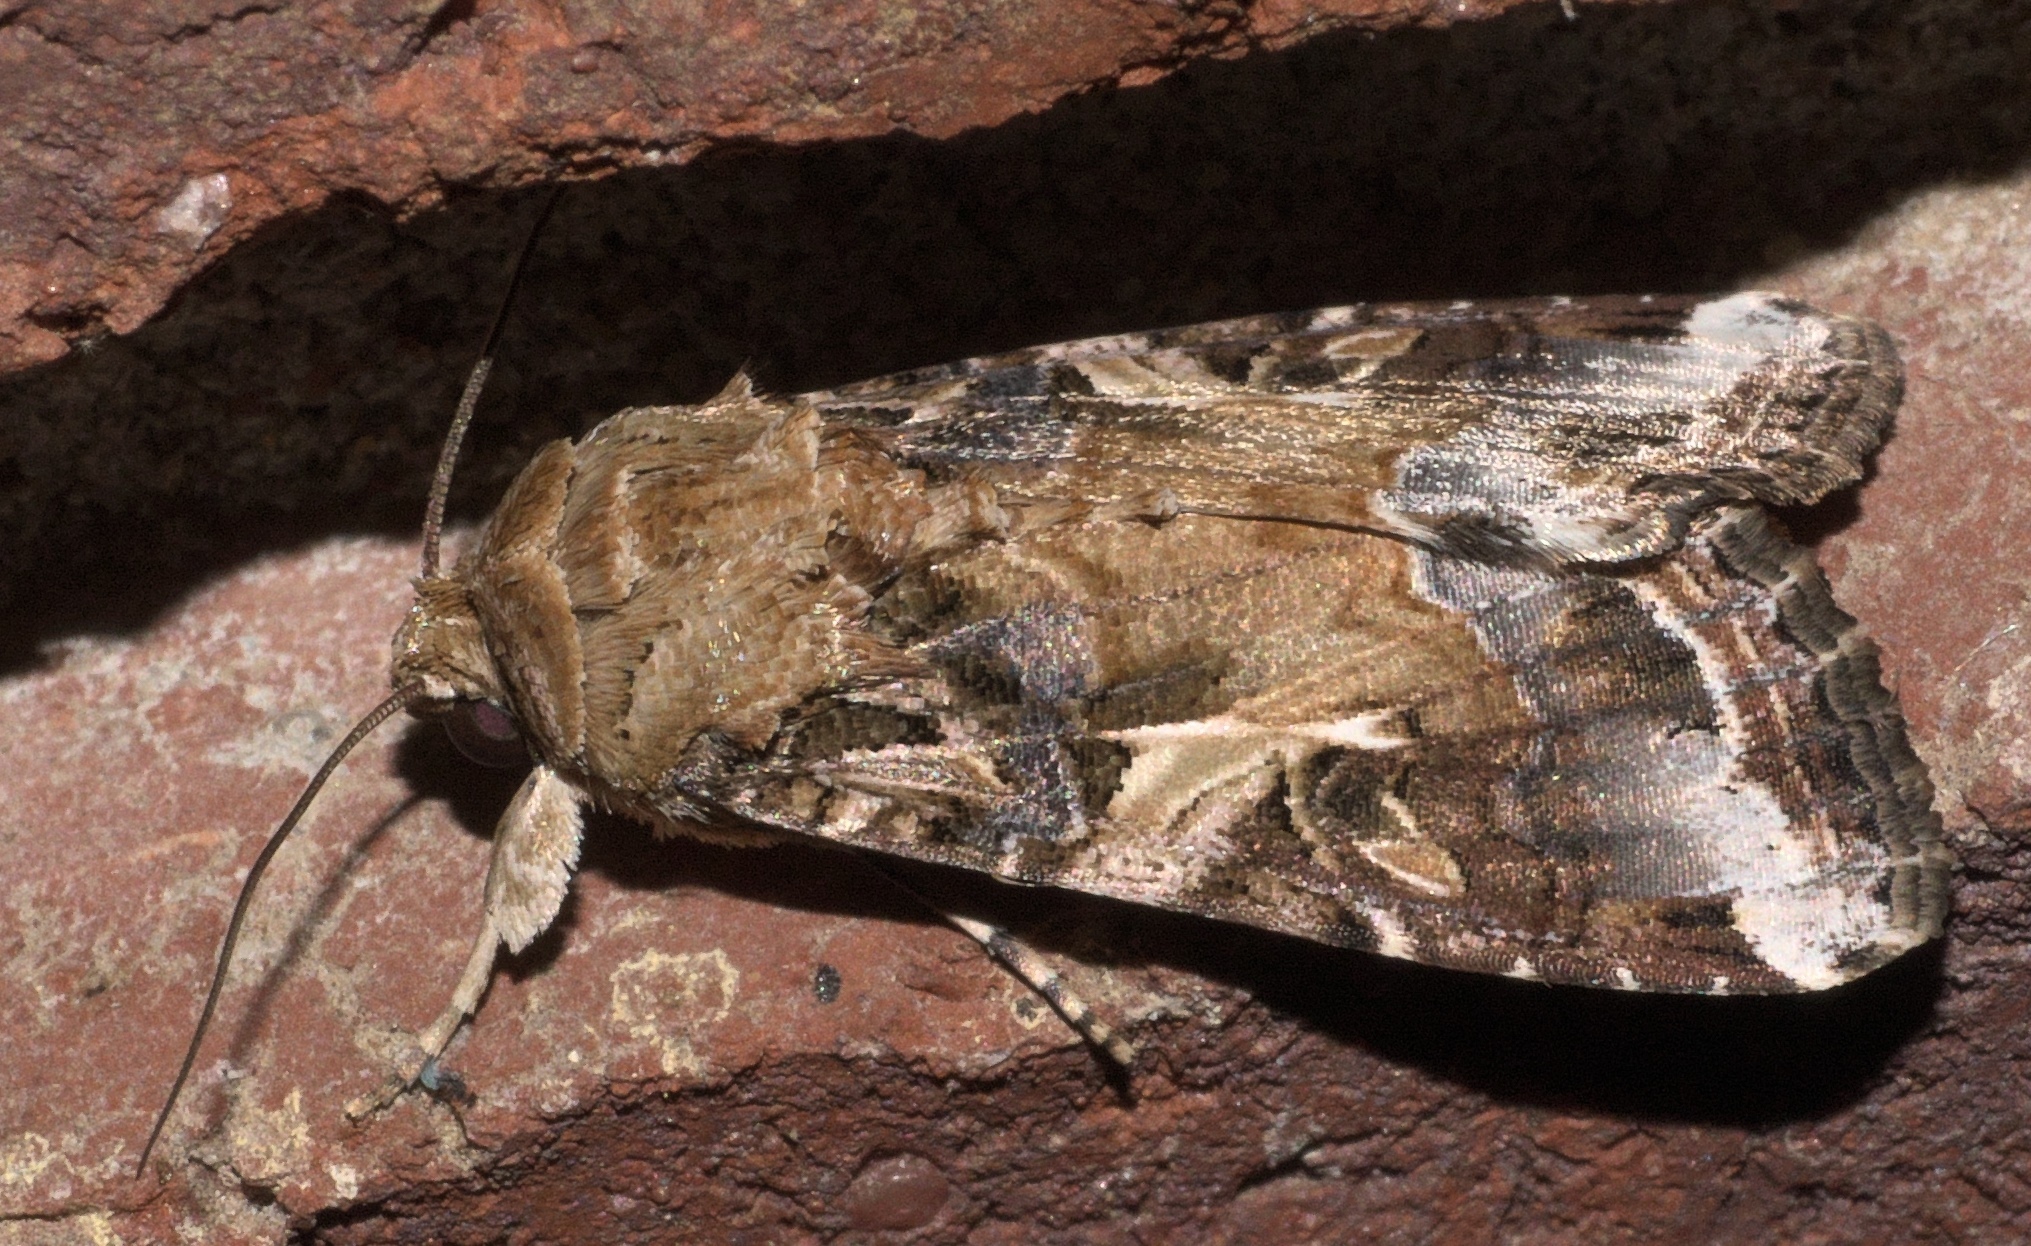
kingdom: Animalia
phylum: Arthropoda
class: Insecta
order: Lepidoptera
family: Noctuidae
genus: Spodoptera
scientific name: Spodoptera ornithogalli
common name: Yellow-striped armyworm
